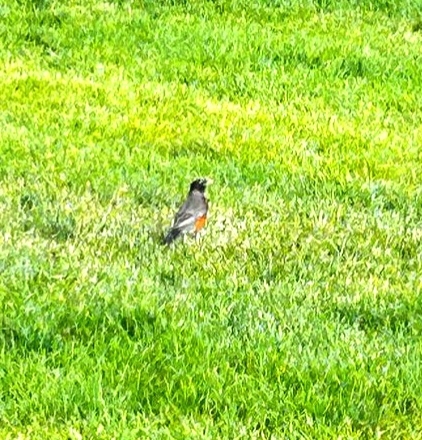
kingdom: Animalia
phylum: Chordata
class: Aves
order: Passeriformes
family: Turdidae
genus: Turdus
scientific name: Turdus migratorius
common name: American robin
